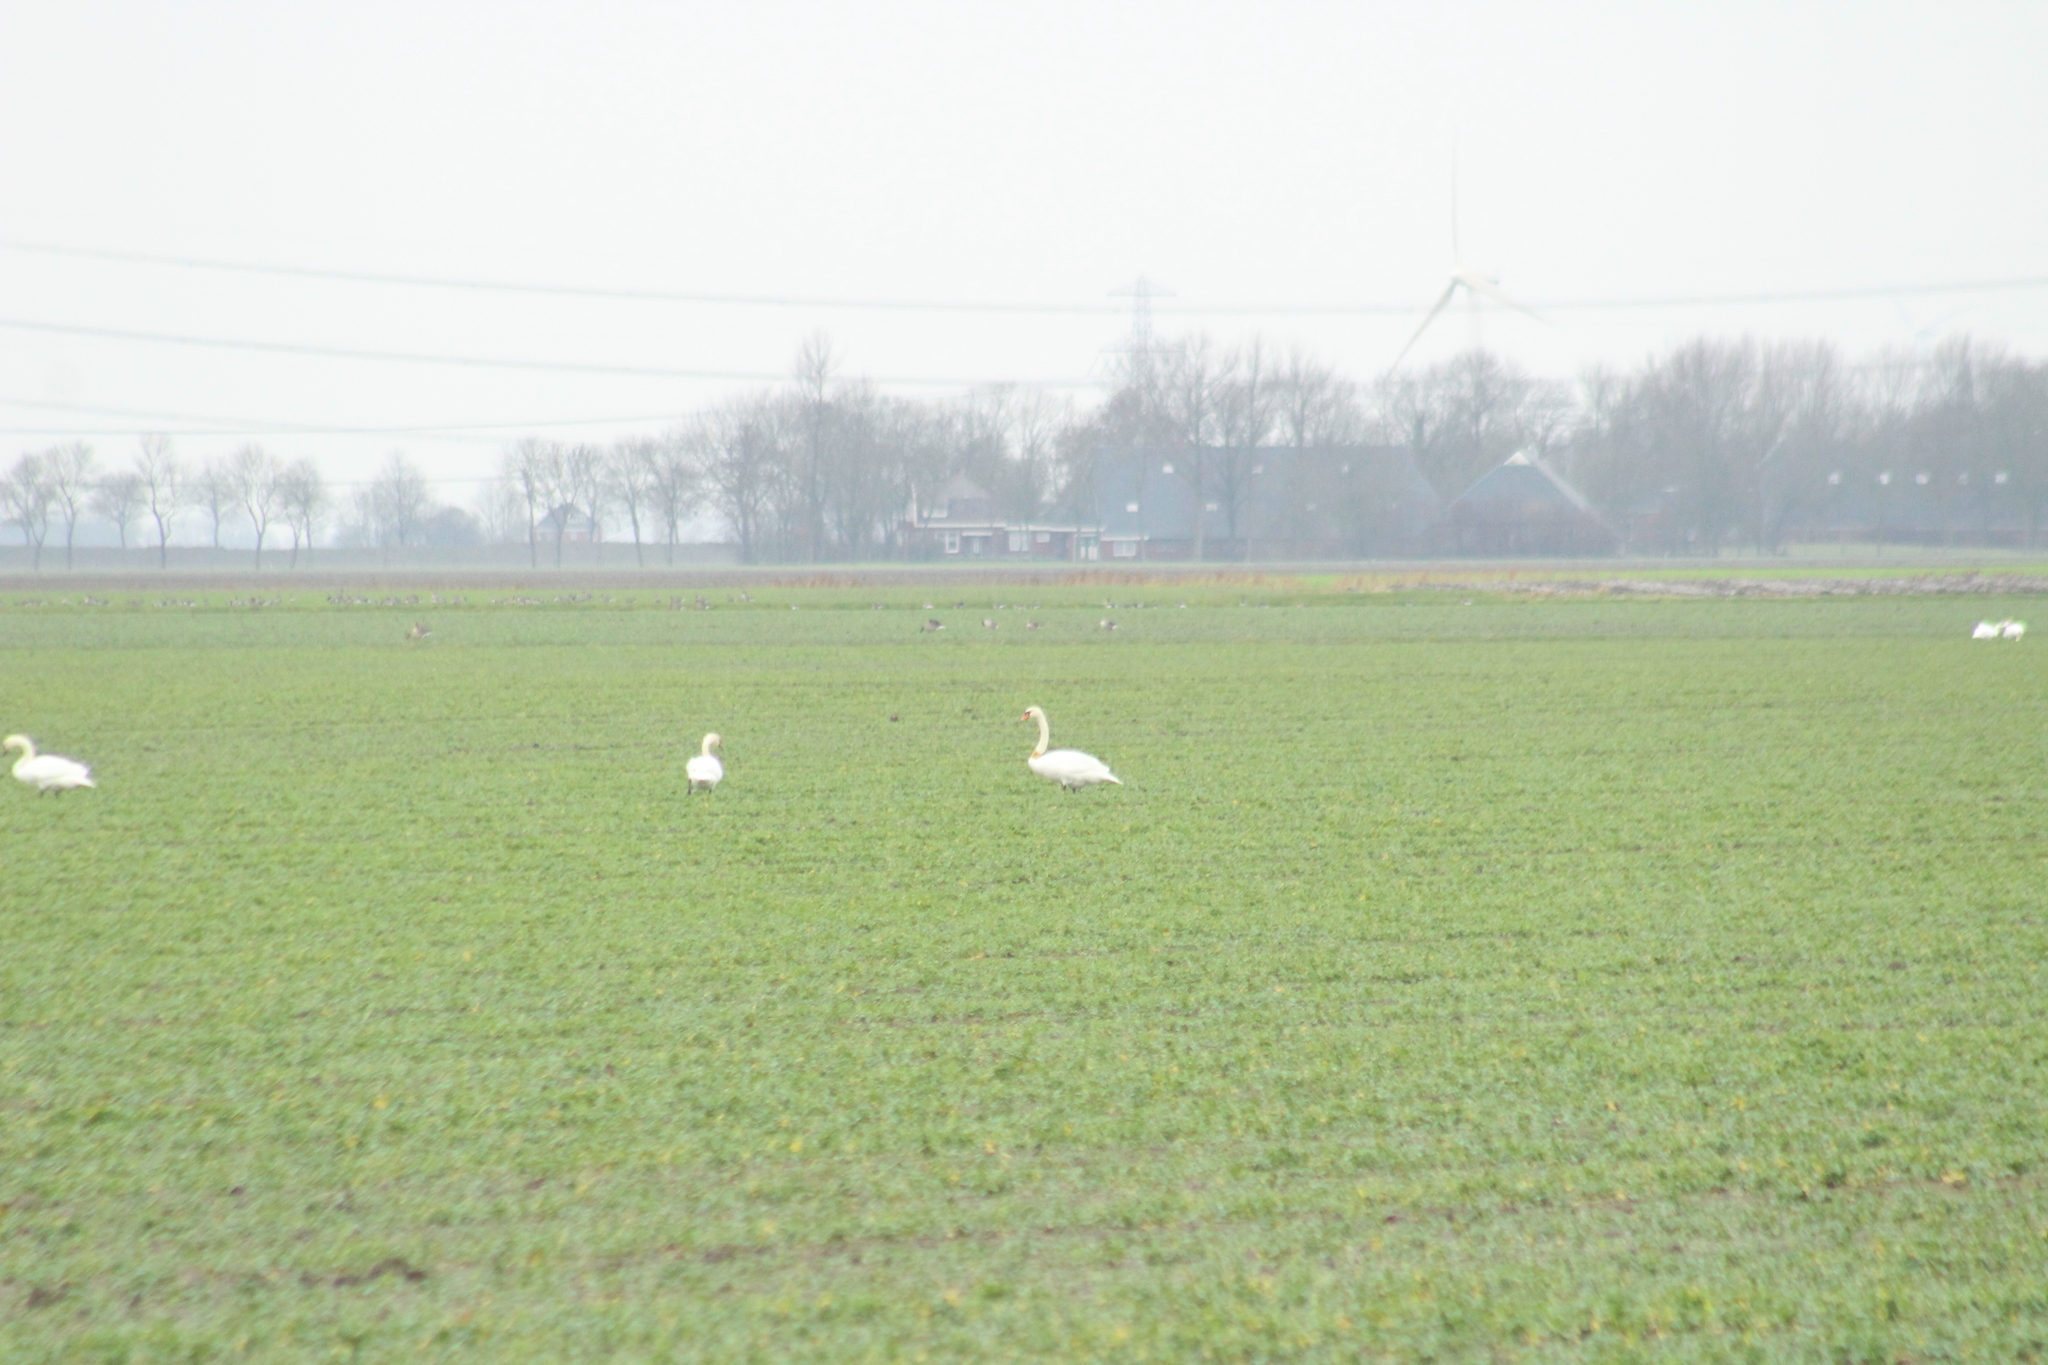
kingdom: Animalia
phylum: Chordata
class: Aves
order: Anseriformes
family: Anatidae
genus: Cygnus
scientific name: Cygnus olor
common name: Mute swan
